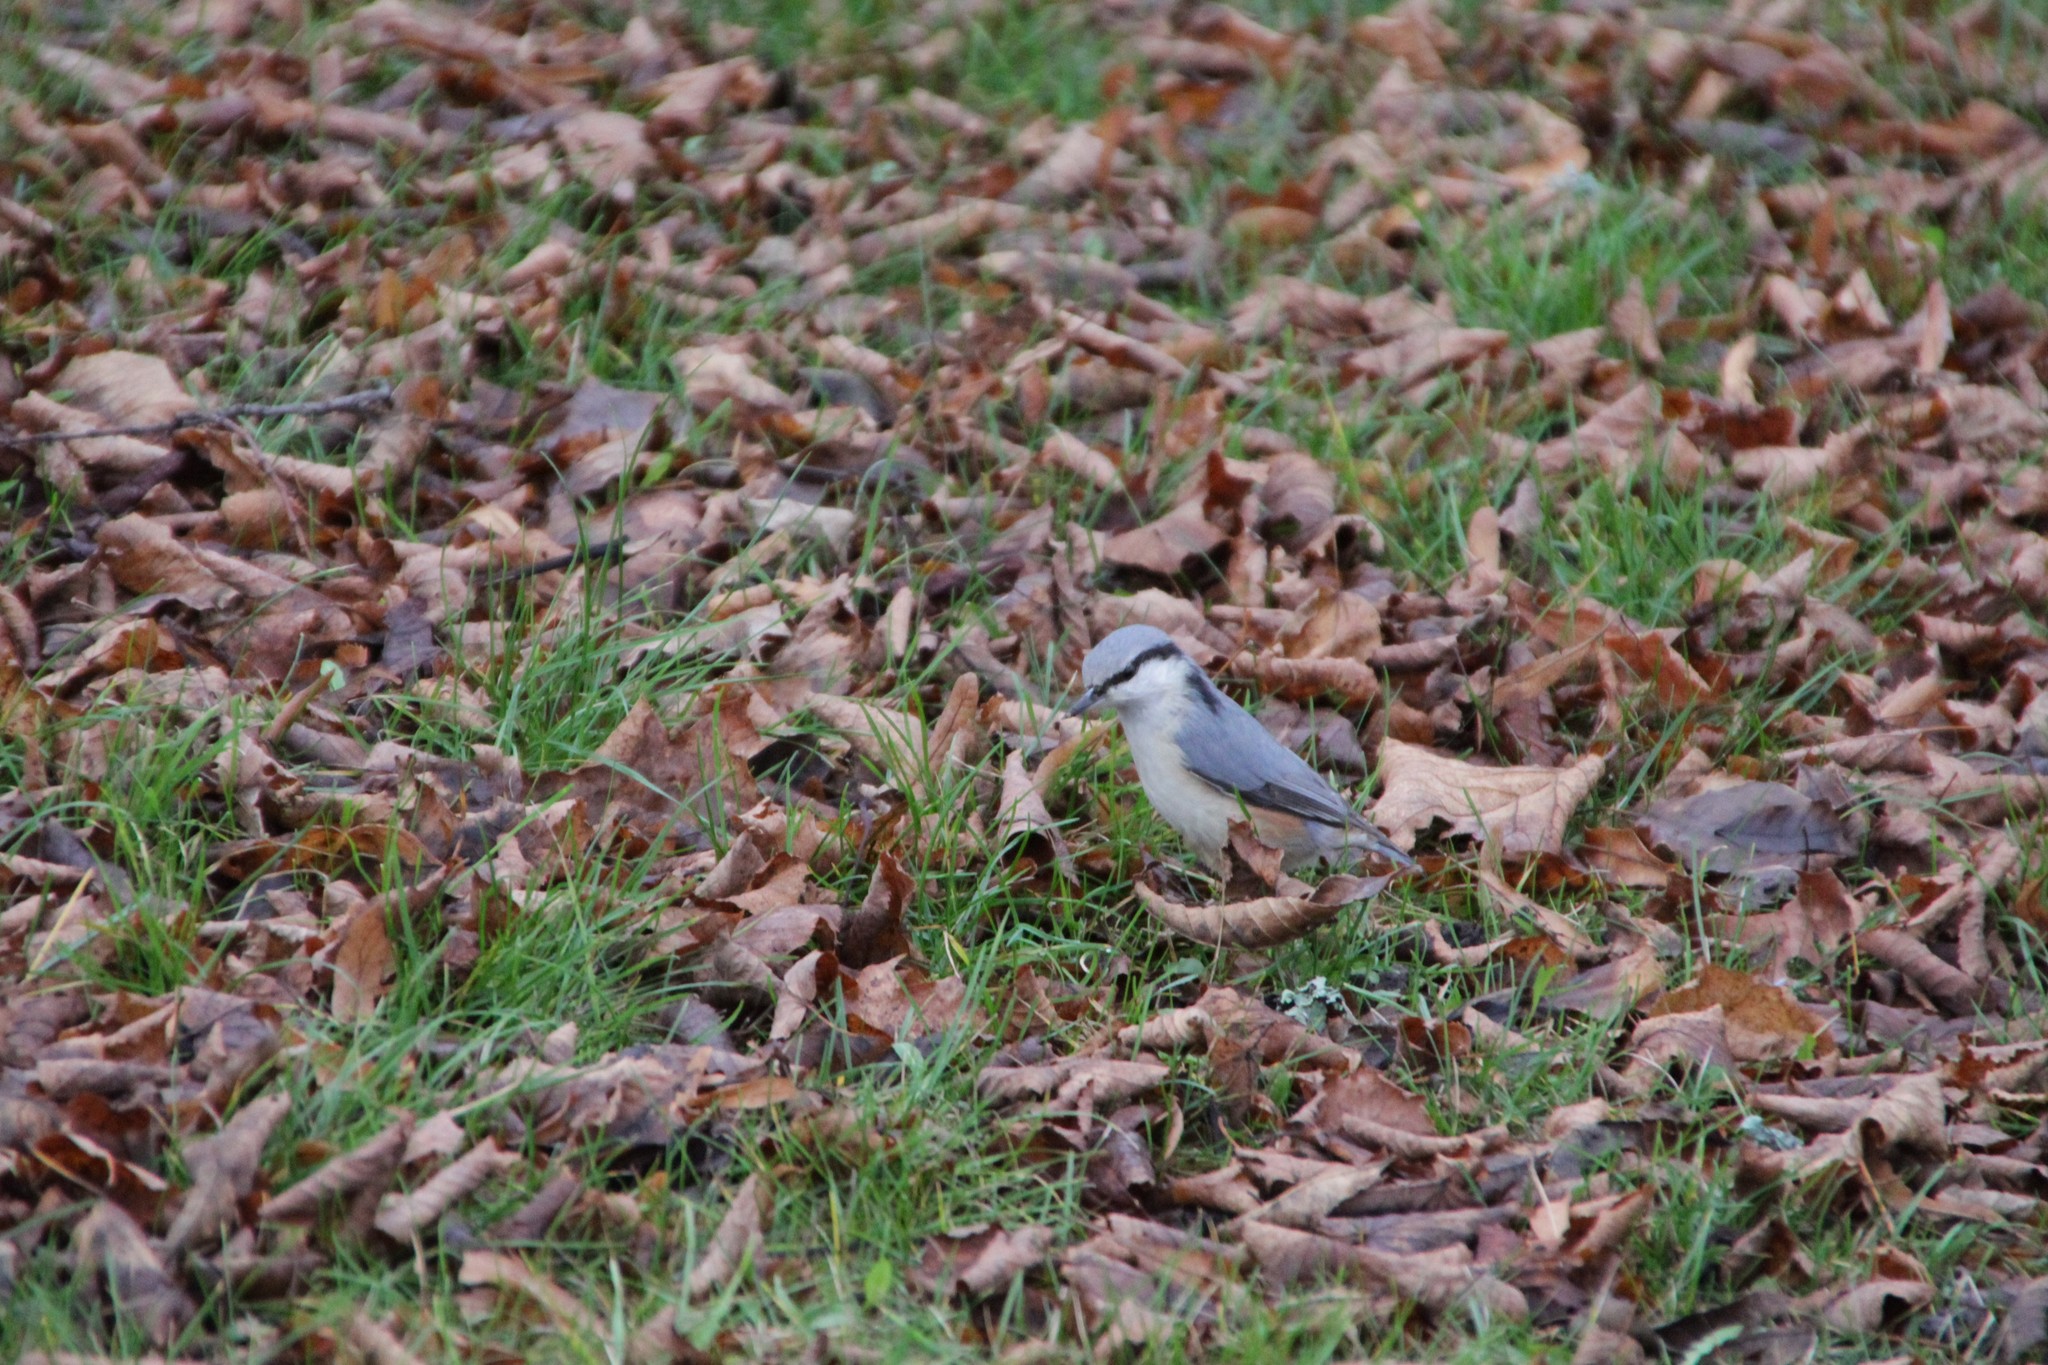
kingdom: Animalia
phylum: Chordata
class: Aves
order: Passeriformes
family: Sittidae
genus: Sitta
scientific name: Sitta europaea
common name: Eurasian nuthatch
